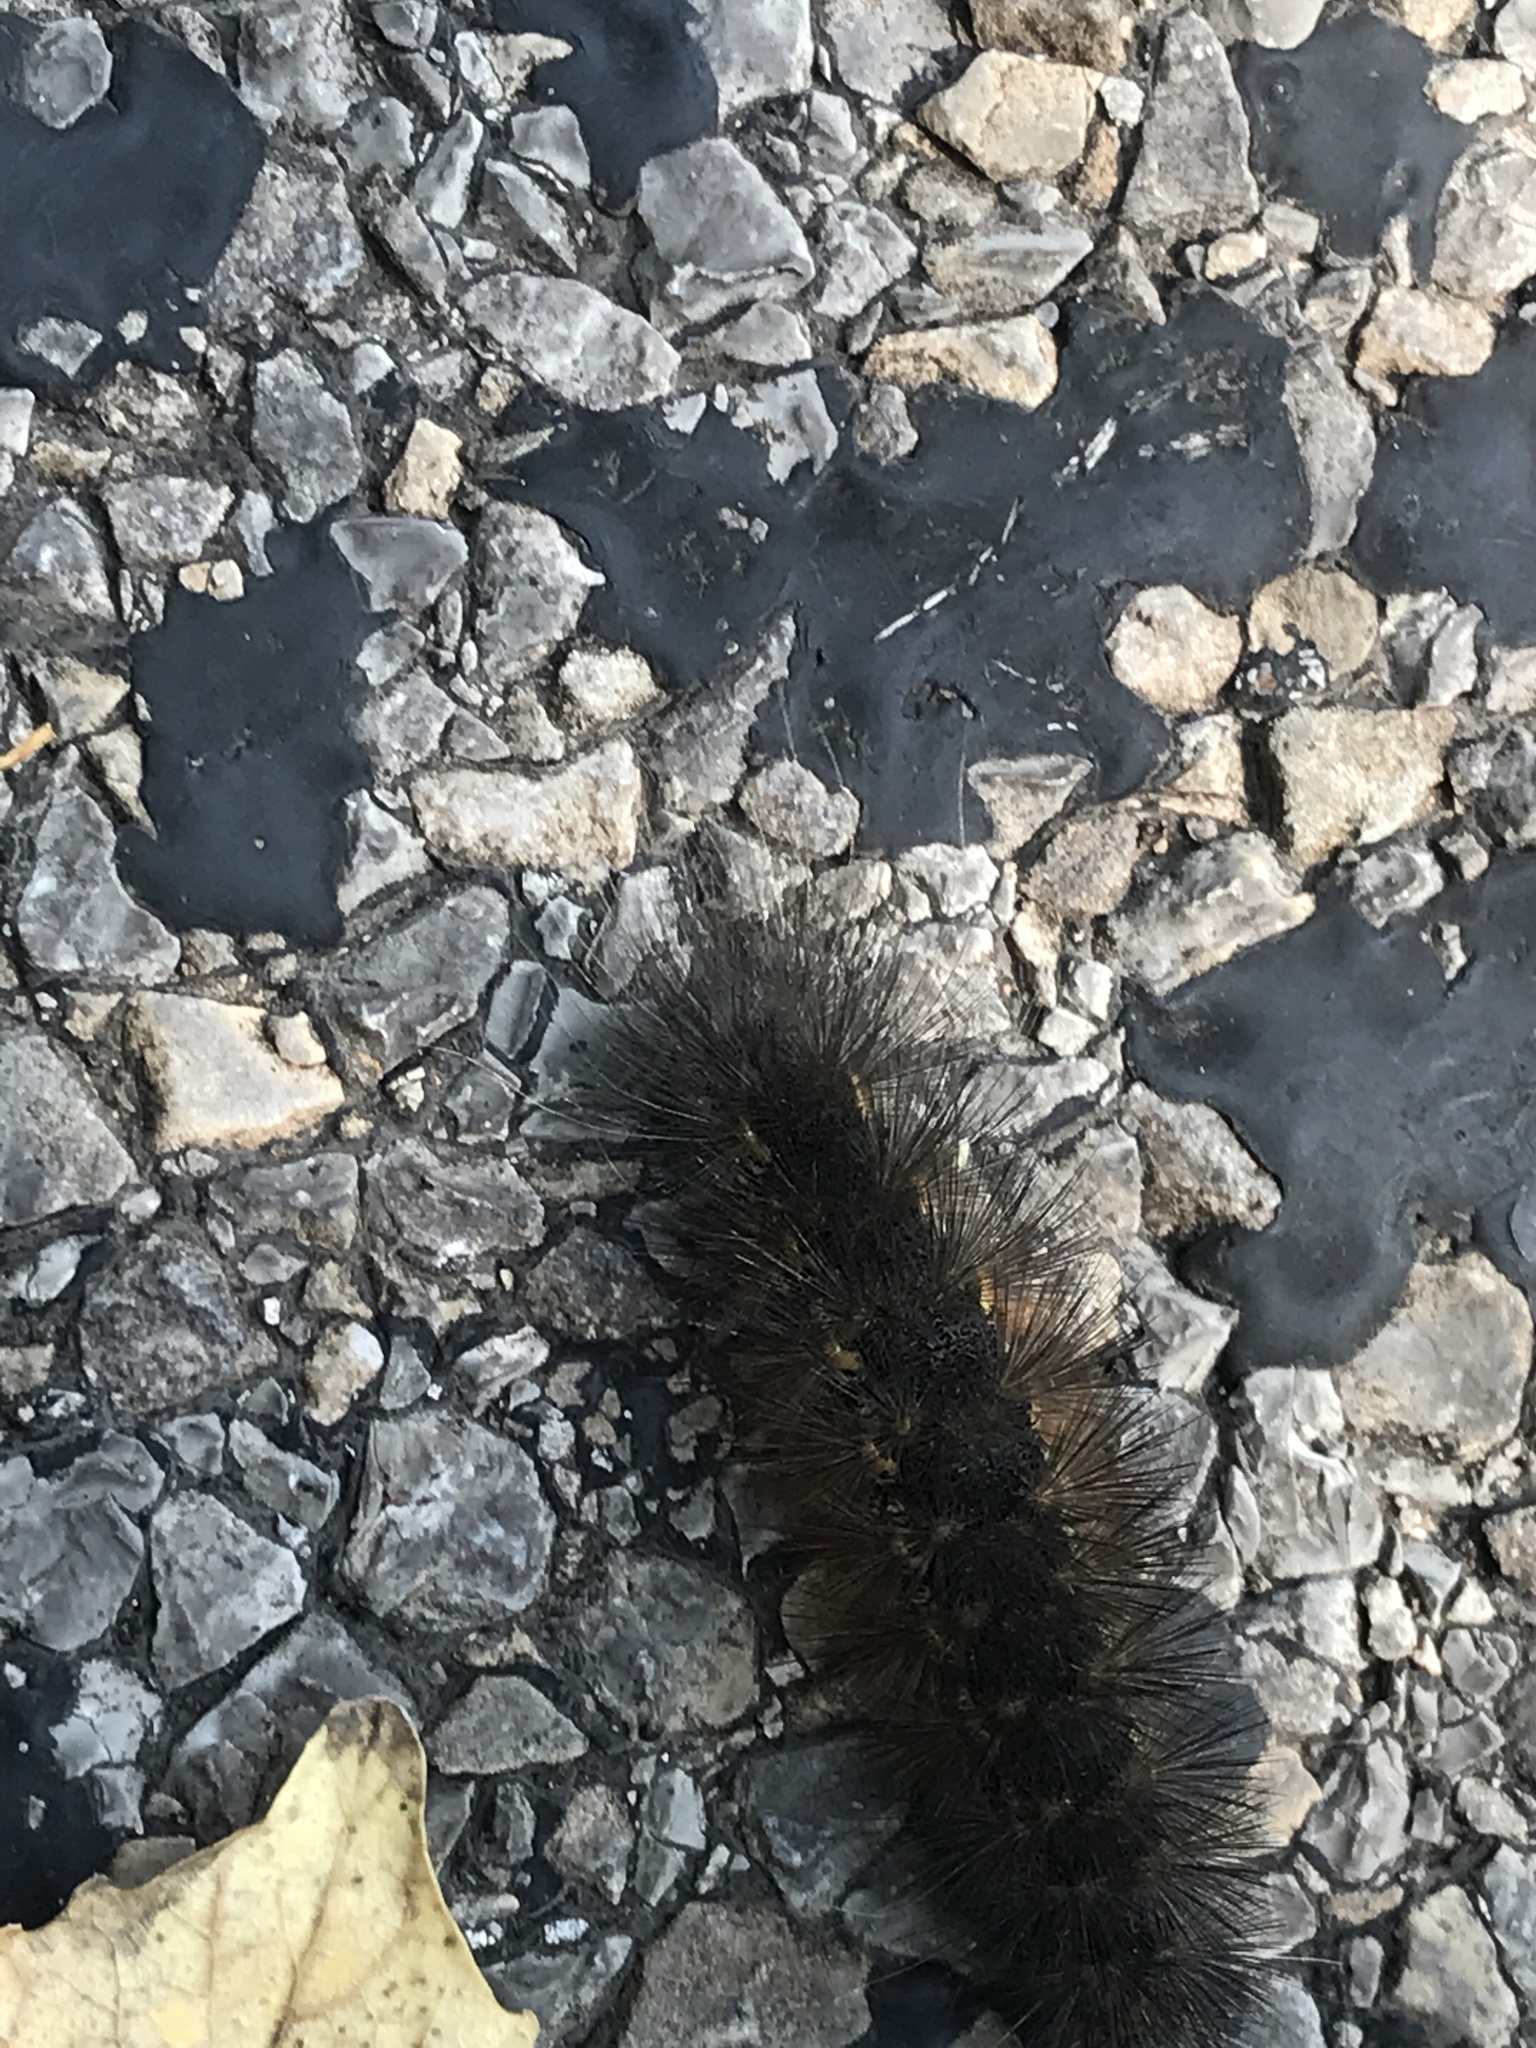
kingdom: Animalia
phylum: Arthropoda
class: Insecta
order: Lepidoptera
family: Erebidae
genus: Estigmene
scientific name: Estigmene acrea
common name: Salt marsh moth
